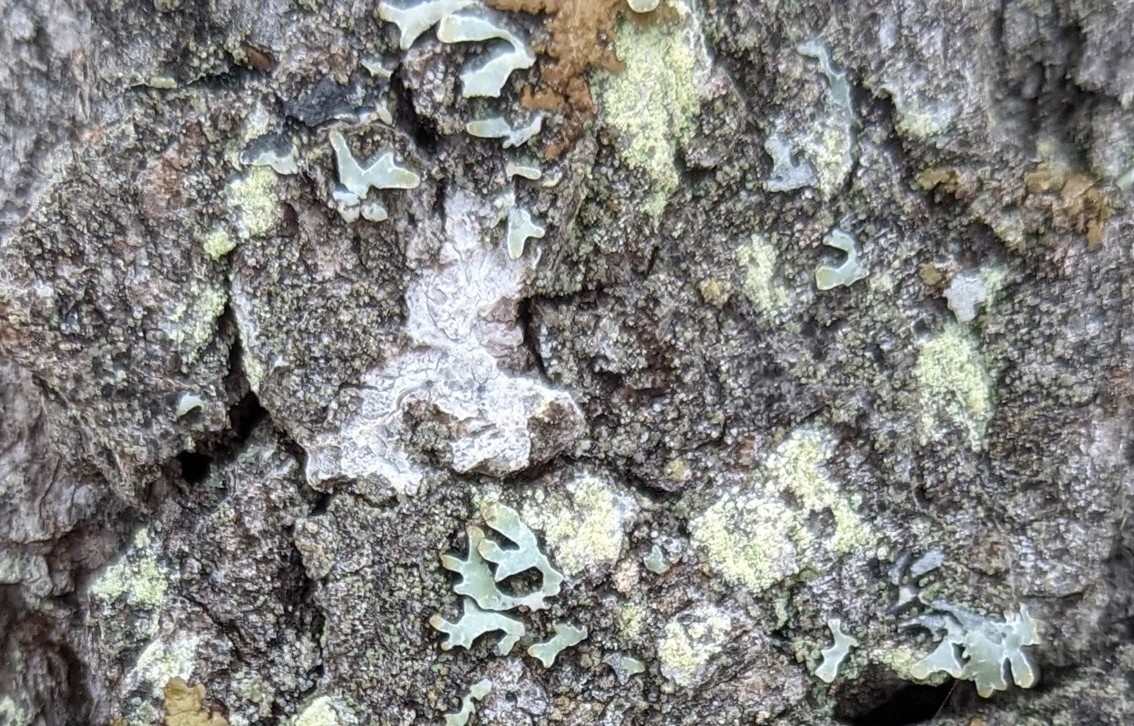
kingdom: Fungi
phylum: Ascomycota
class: Lecanoromycetes
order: Lecanorales
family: Parmeliaceae
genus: Parmelia
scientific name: Parmelia sulcata
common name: Netted shield lichen
